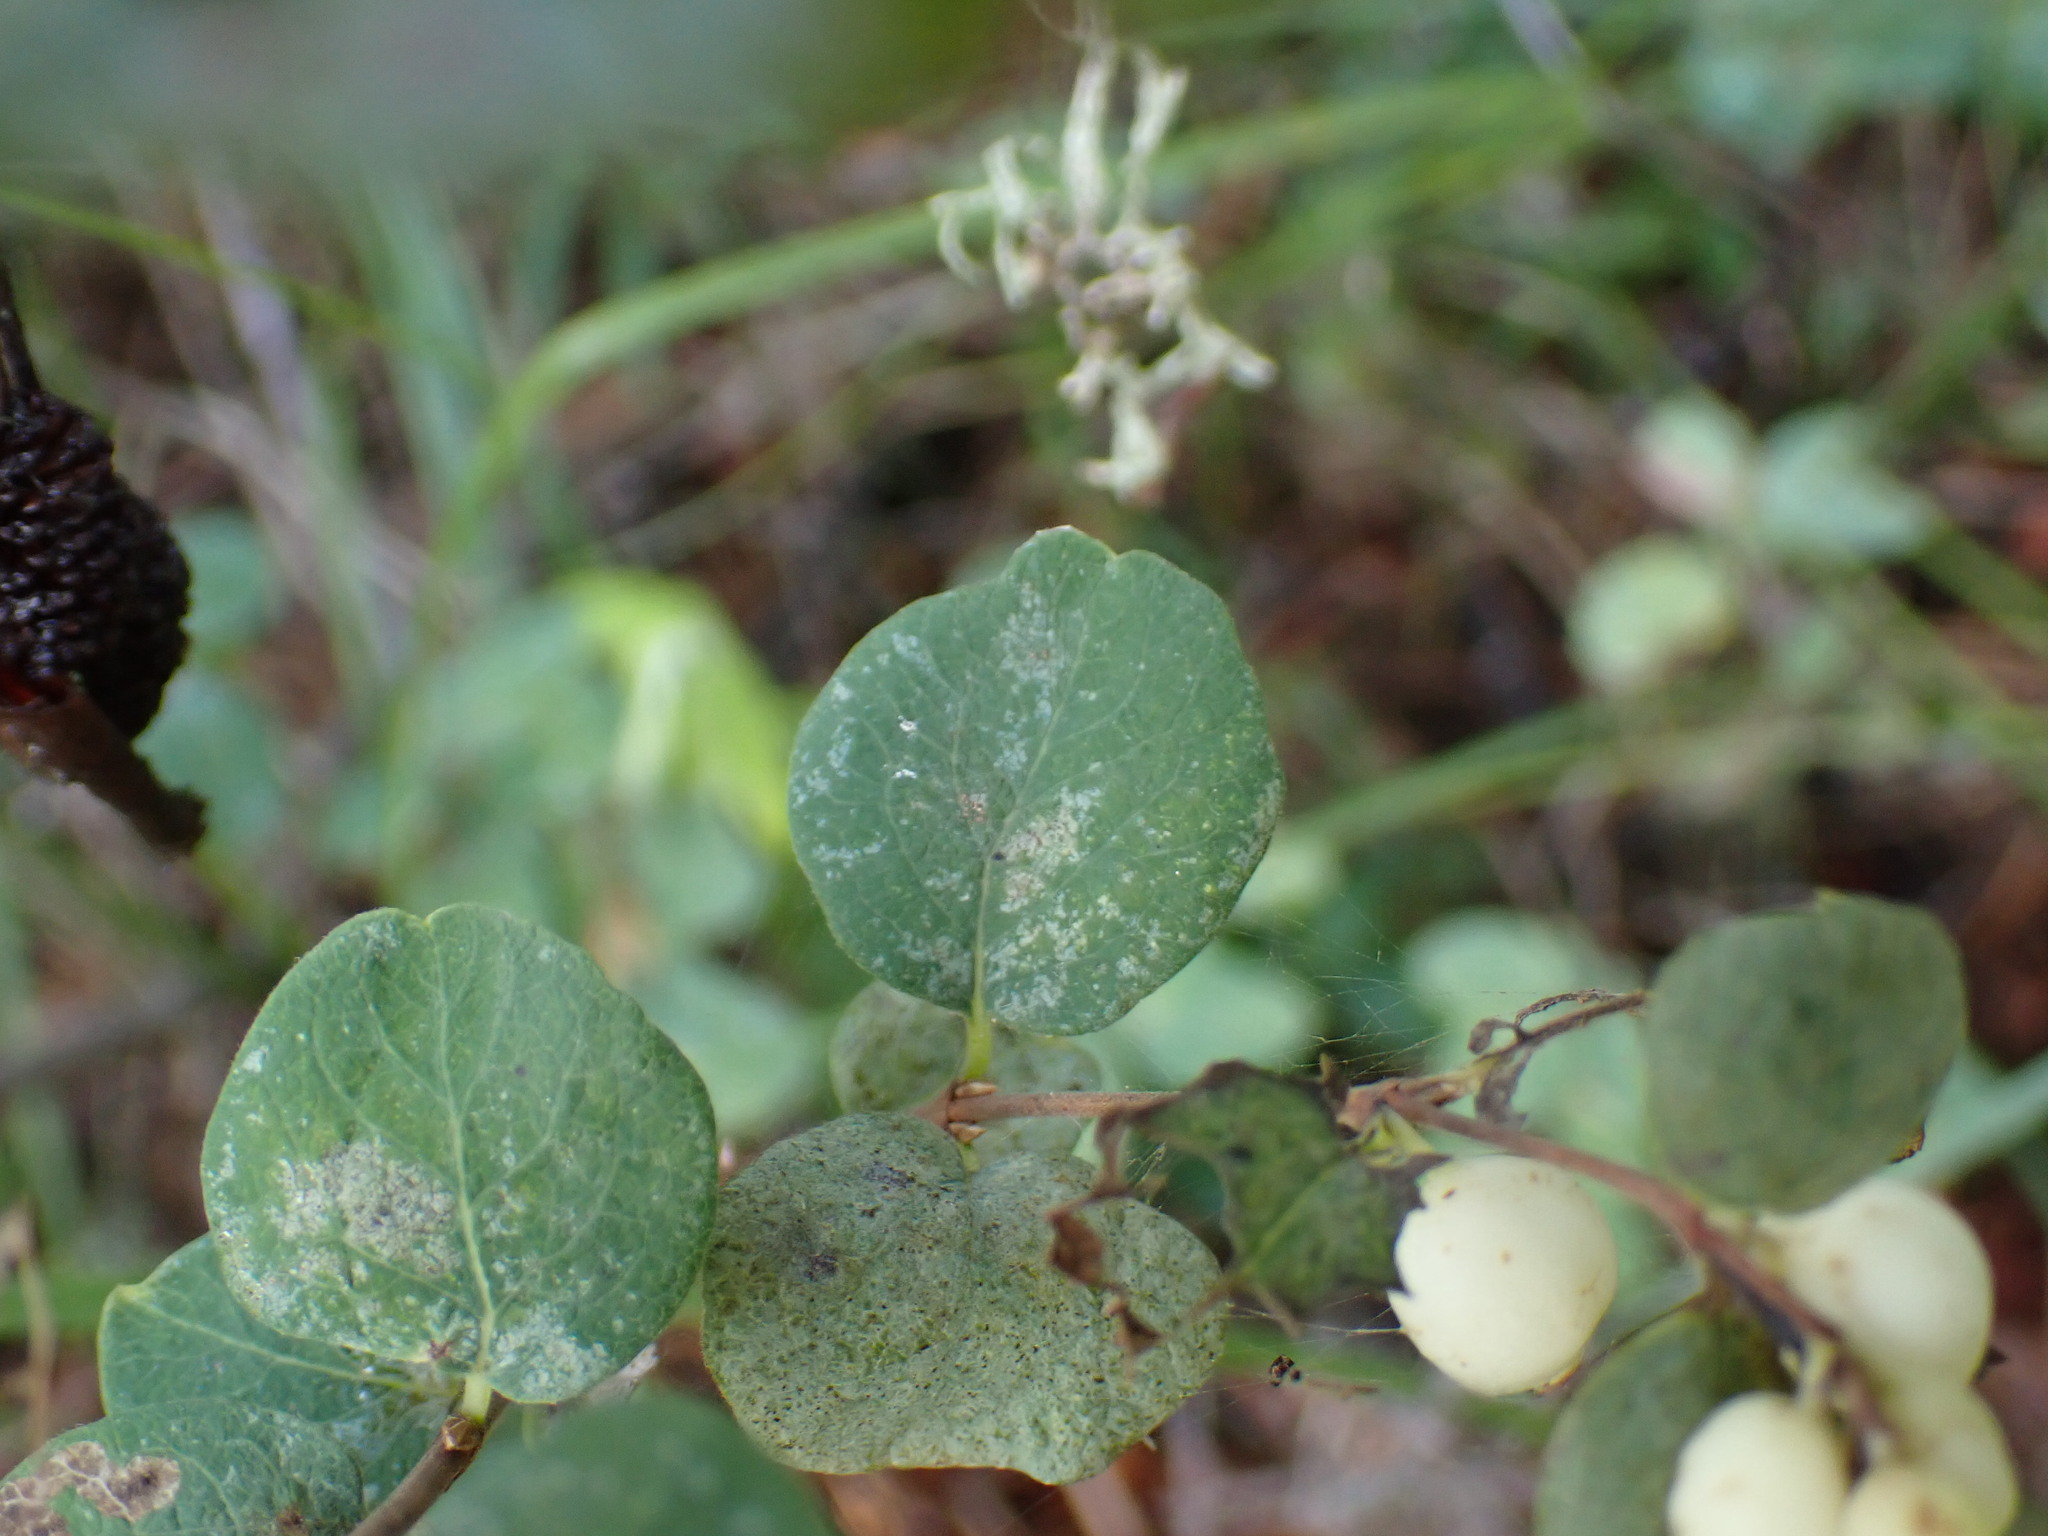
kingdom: Plantae
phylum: Tracheophyta
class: Magnoliopsida
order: Dipsacales
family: Caprifoliaceae
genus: Symphoricarpos
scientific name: Symphoricarpos occidentalis
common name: Wolfberry
